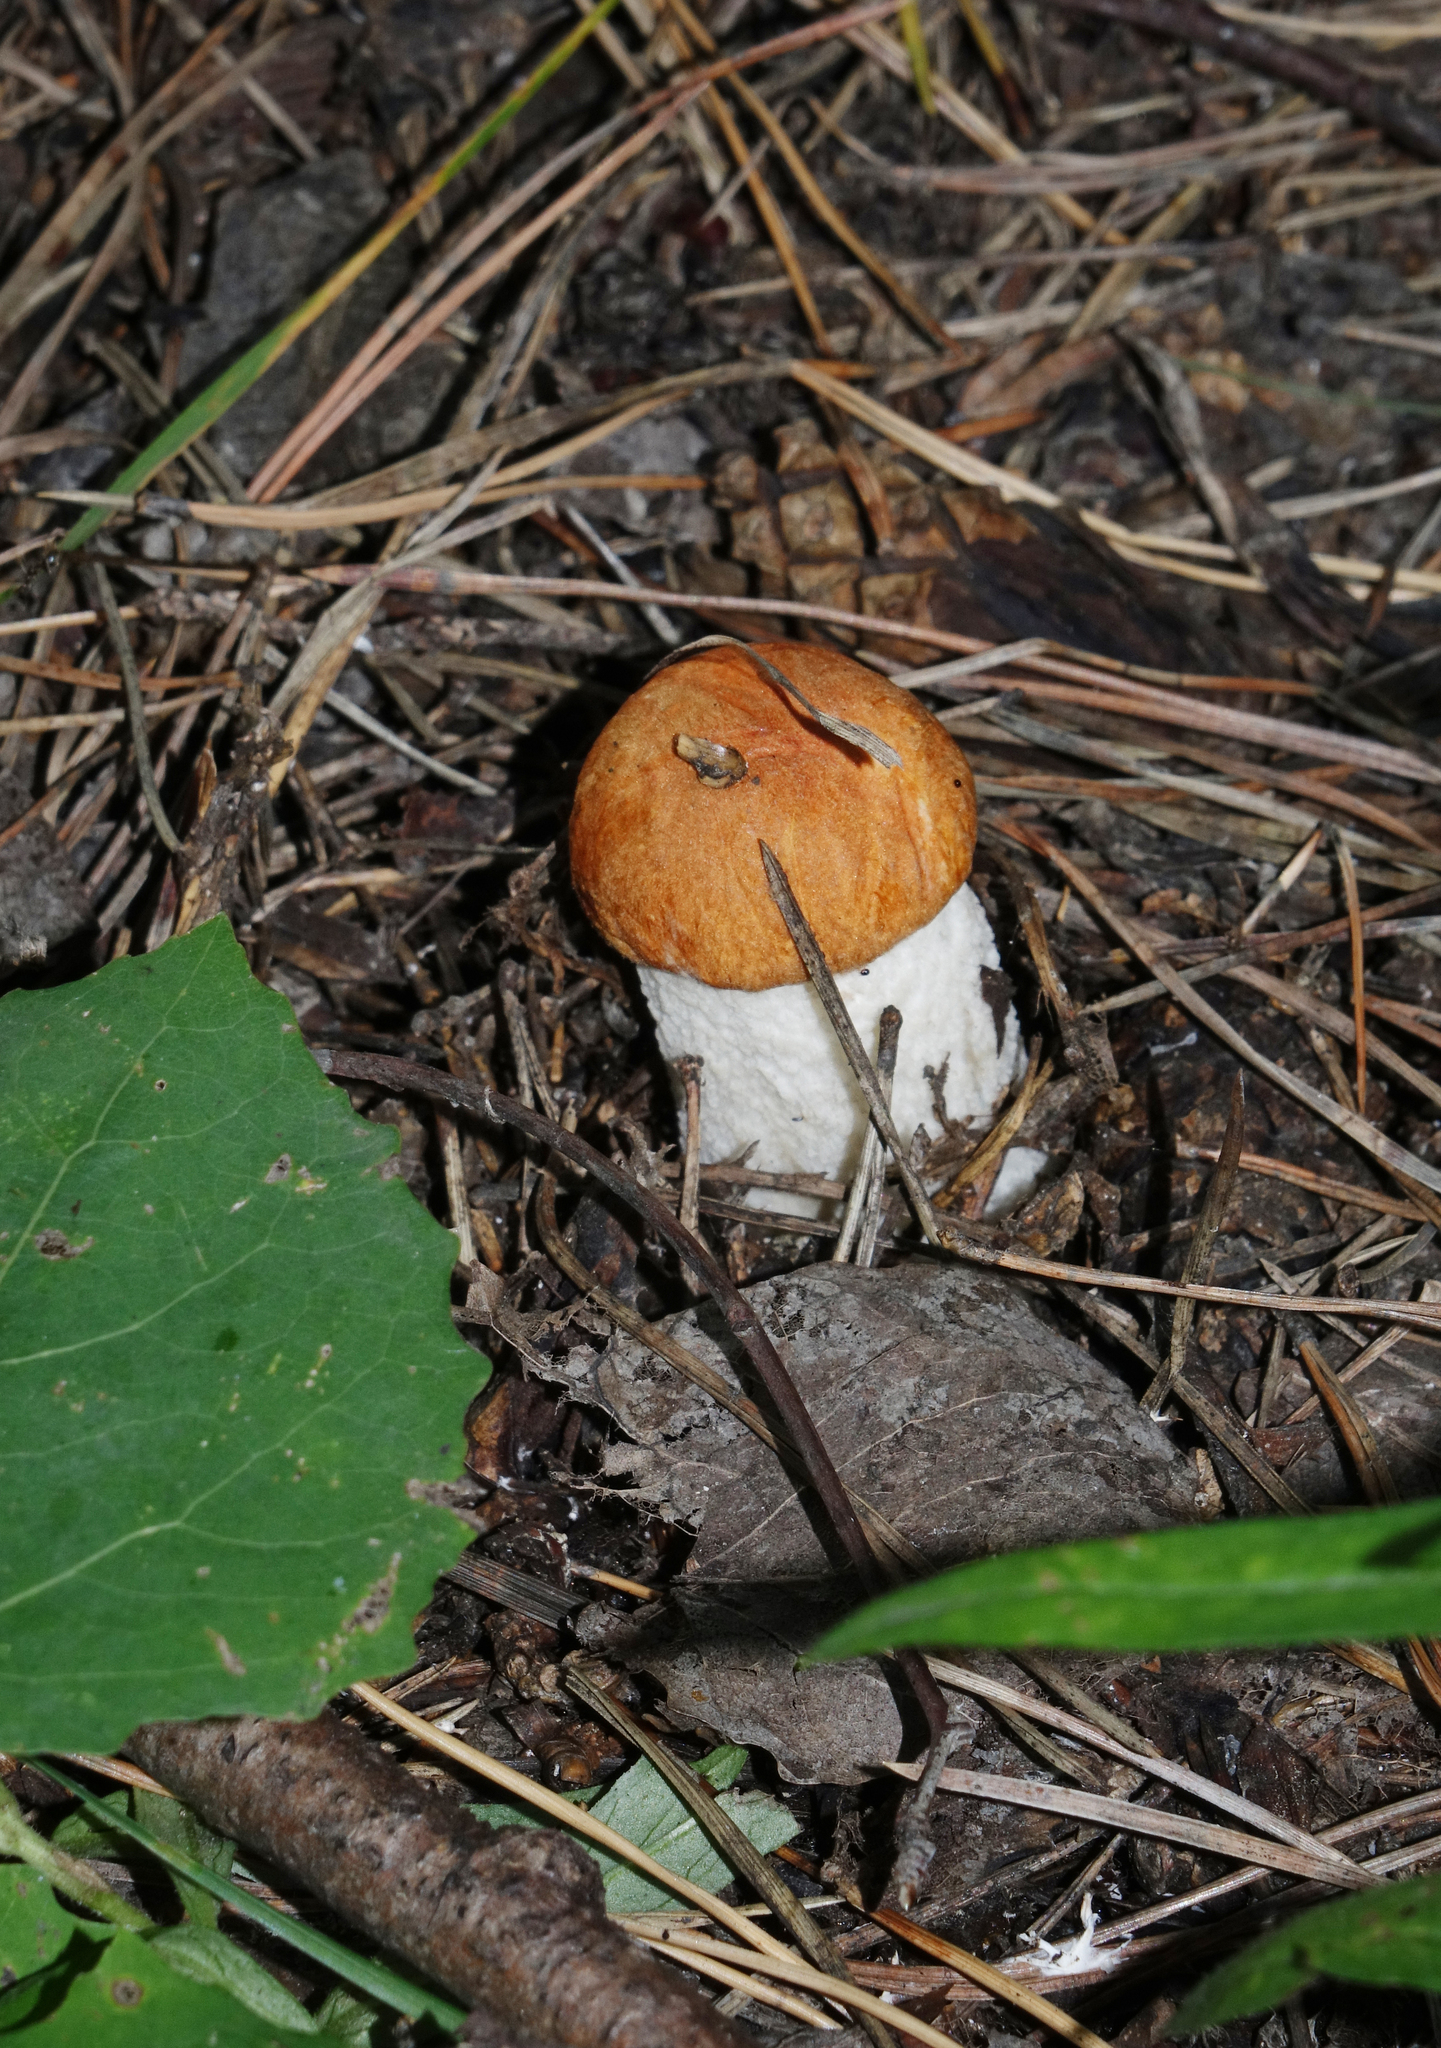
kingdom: Fungi
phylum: Basidiomycota
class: Agaricomycetes
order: Boletales
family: Boletaceae
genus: Leccinum
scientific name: Leccinum albostipitatum
